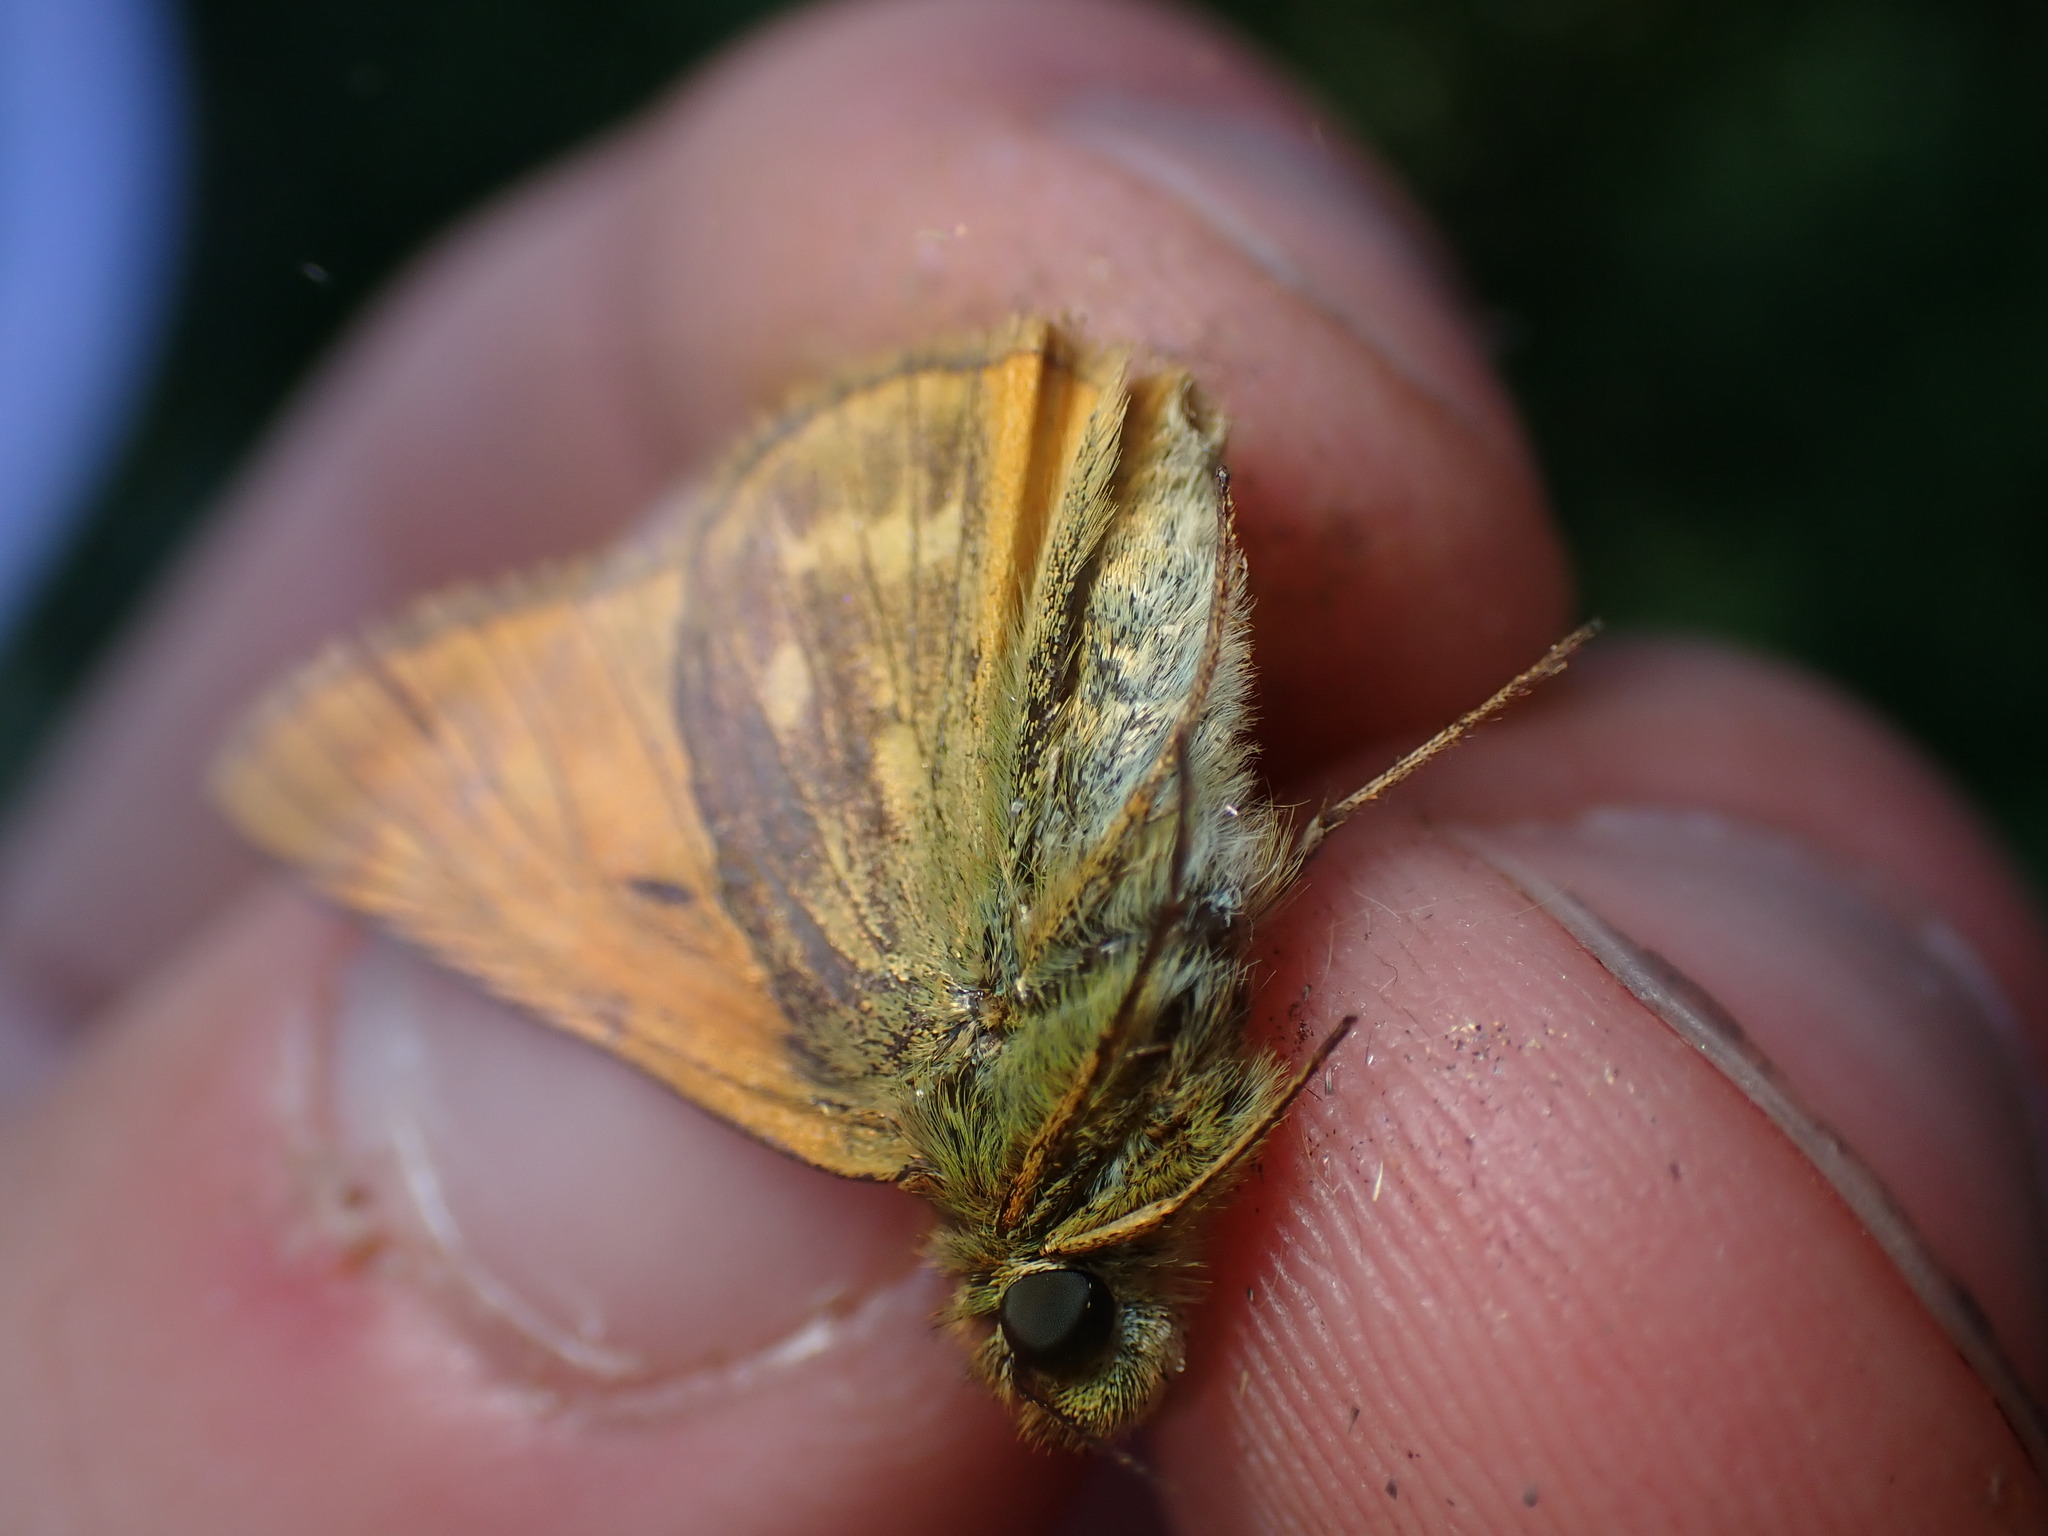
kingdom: Animalia
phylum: Arthropoda
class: Insecta
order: Lepidoptera
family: Hesperiidae
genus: Ochlodes
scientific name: Ochlodes venata
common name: Large skipper
